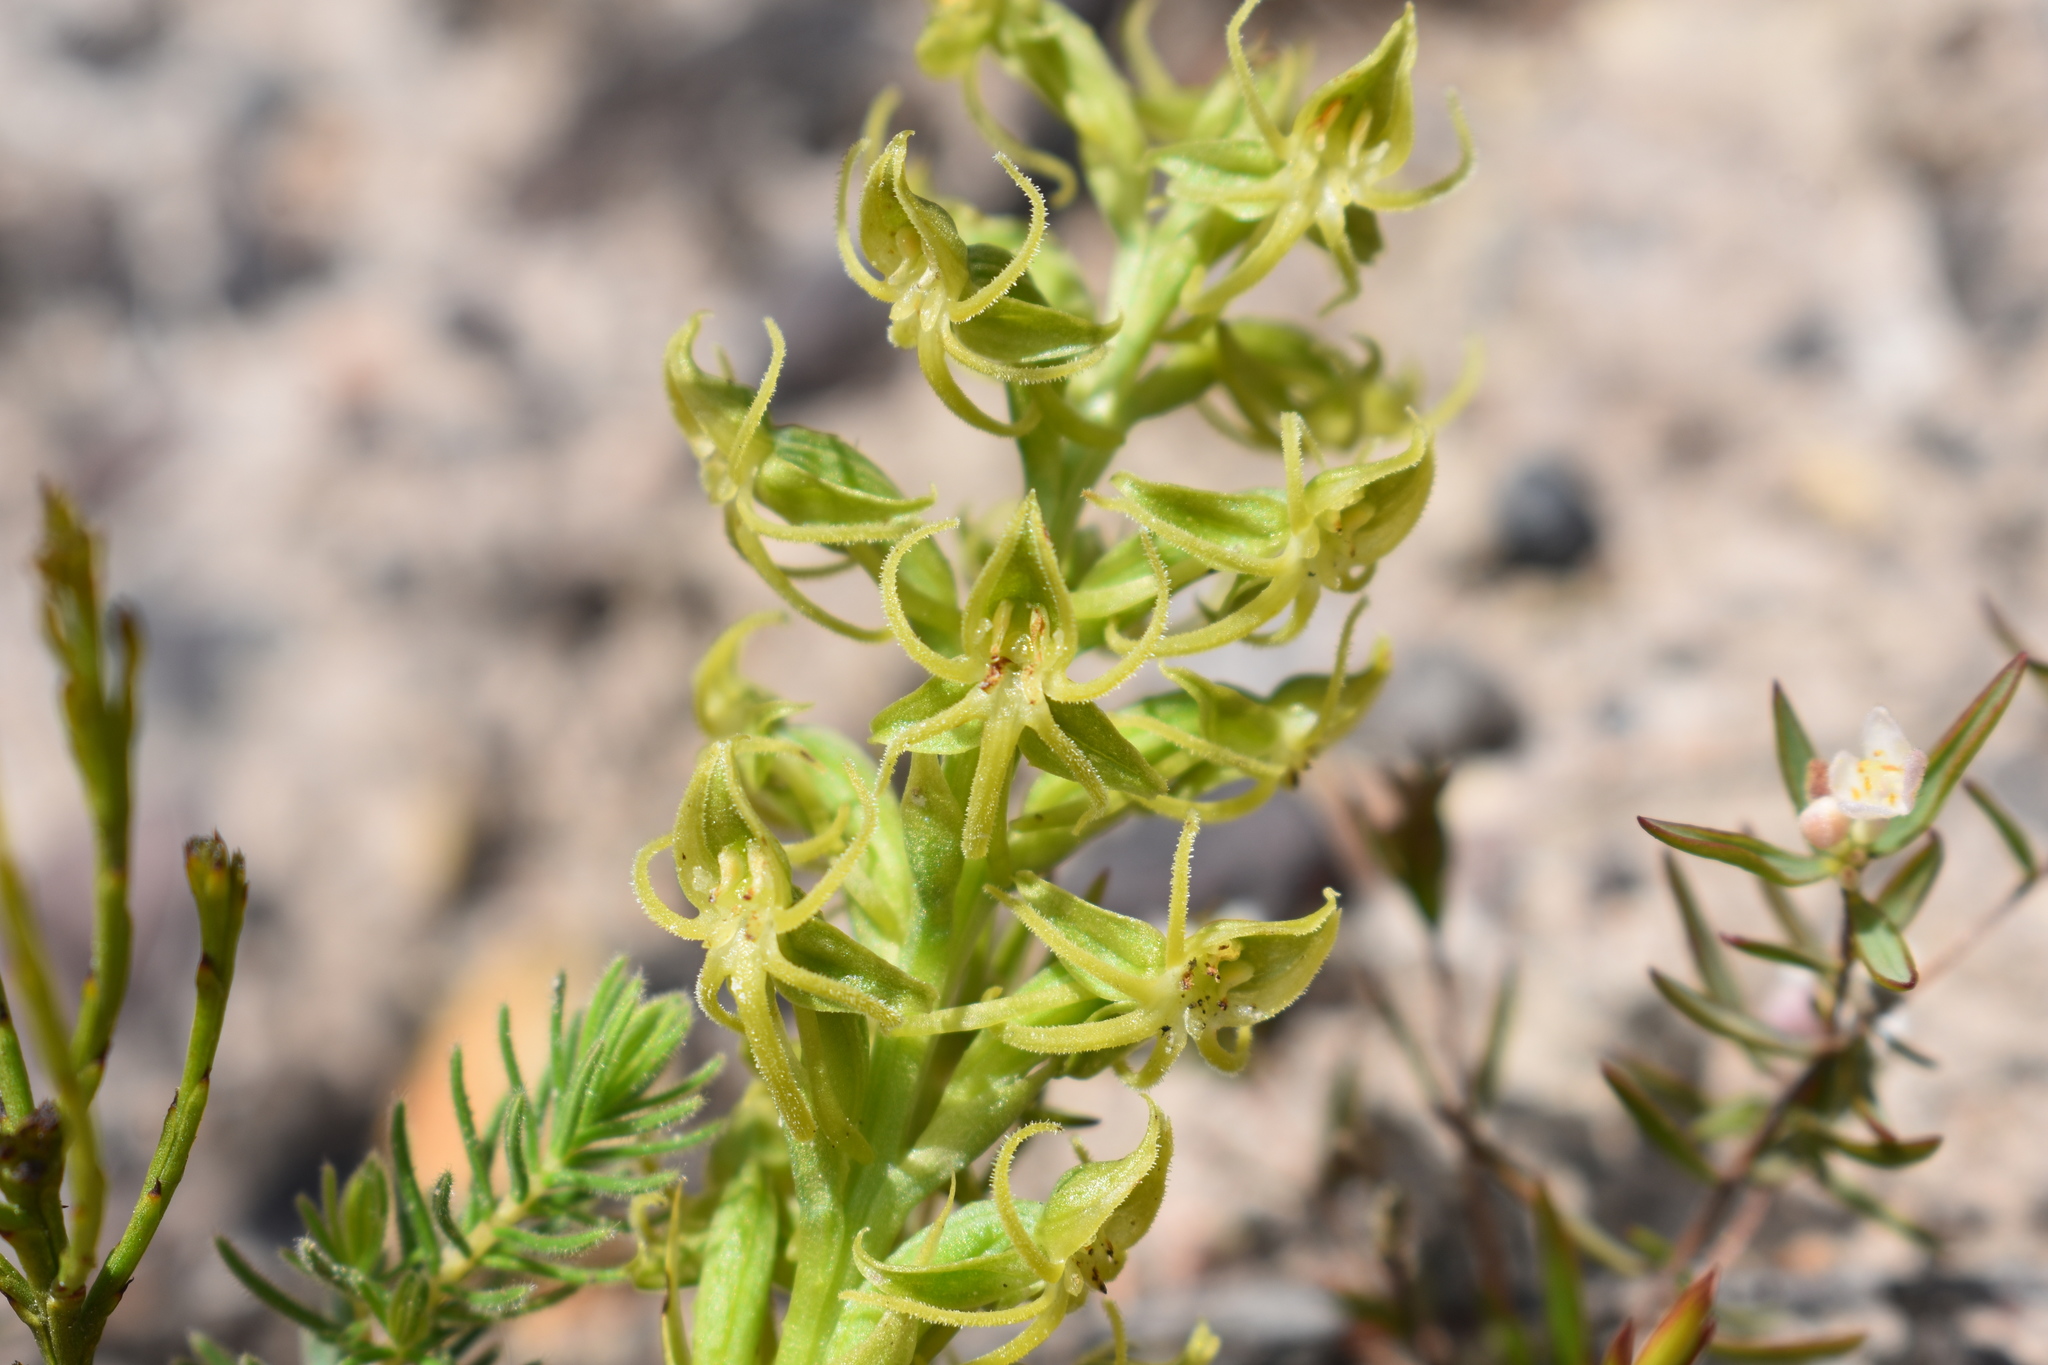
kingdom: Plantae
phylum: Tracheophyta
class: Liliopsida
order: Asparagales
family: Orchidaceae
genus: Habenaria
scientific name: Habenaria lithophila
